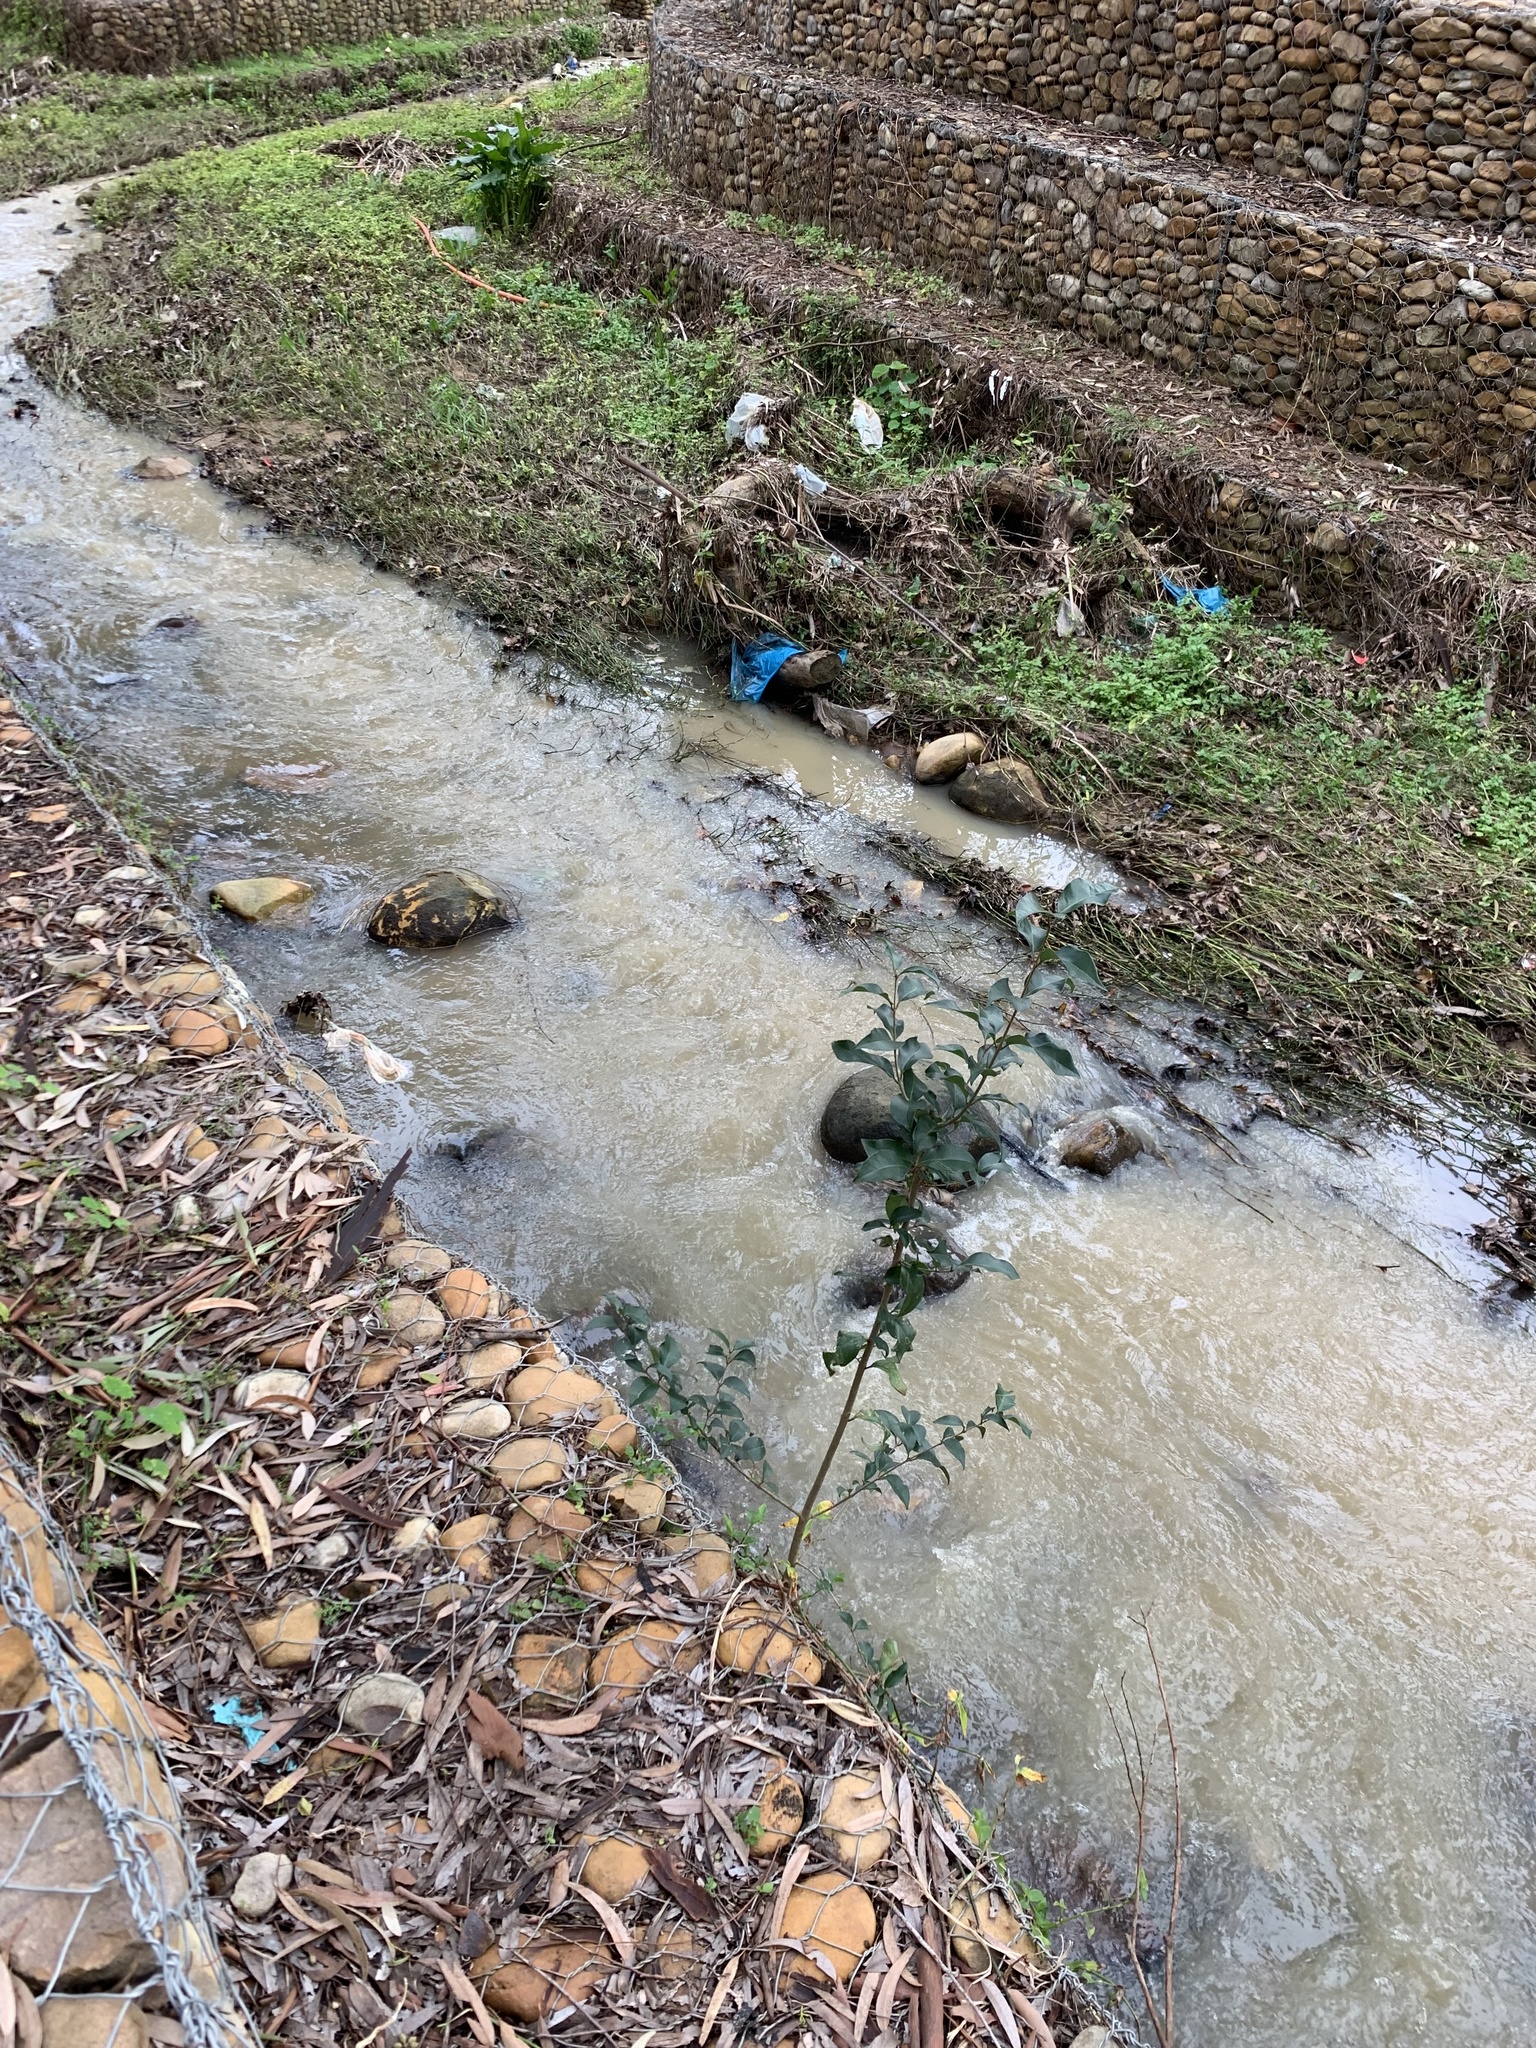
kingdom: Plantae
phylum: Tracheophyta
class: Magnoliopsida
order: Lamiales
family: Oleaceae
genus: Ligustrum
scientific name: Ligustrum lucidum
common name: Glossy privet
